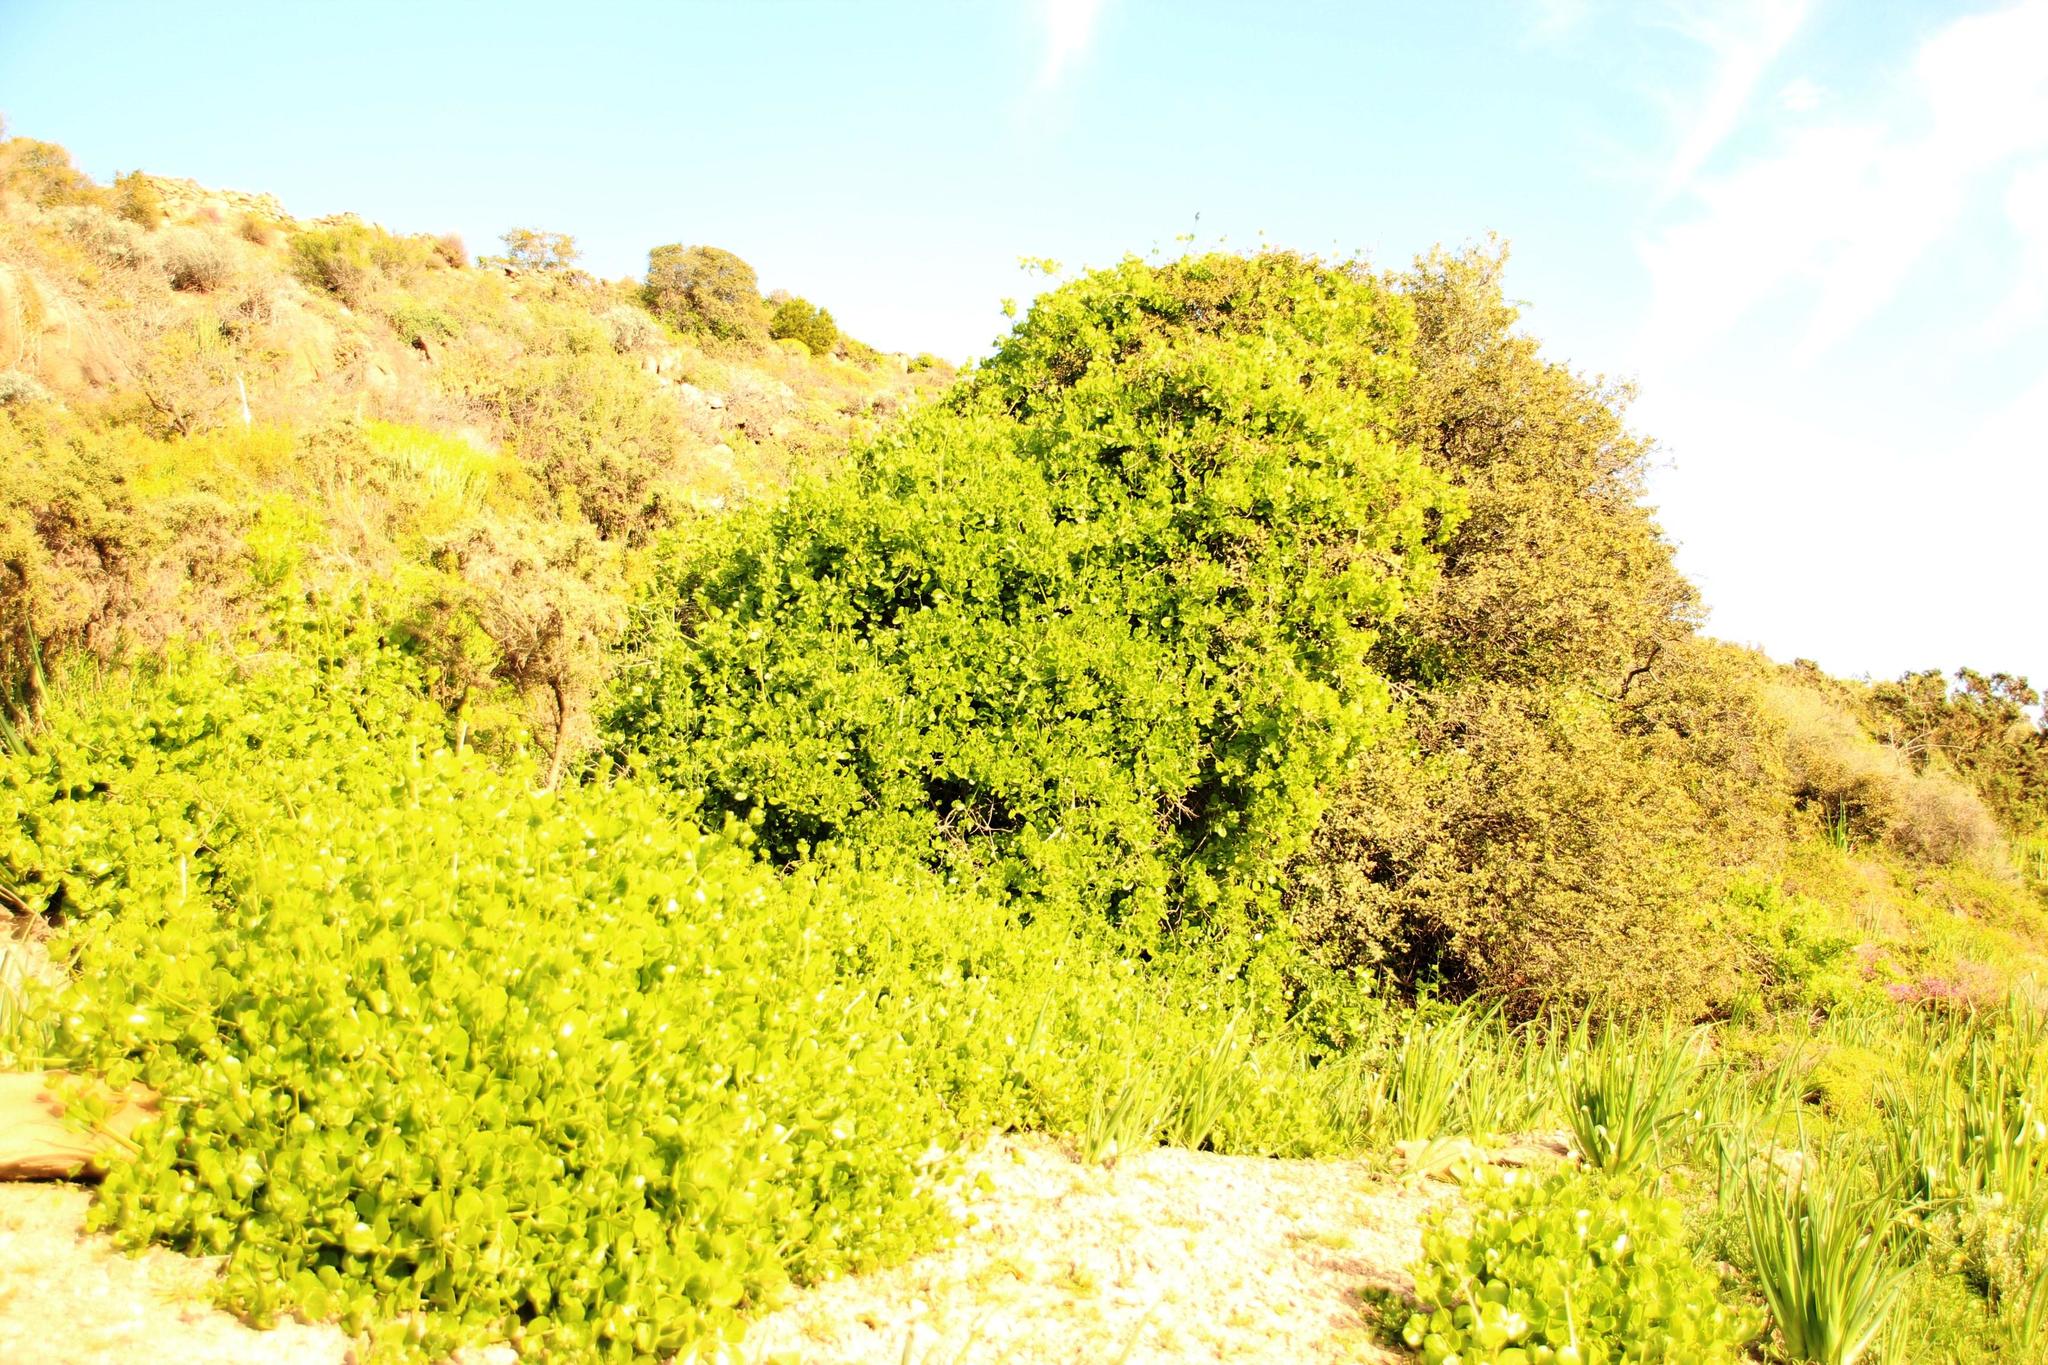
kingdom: Plantae
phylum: Tracheophyta
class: Magnoliopsida
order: Zygophyllales
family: Zygophyllaceae
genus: Roepera
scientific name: Roepera foetida
